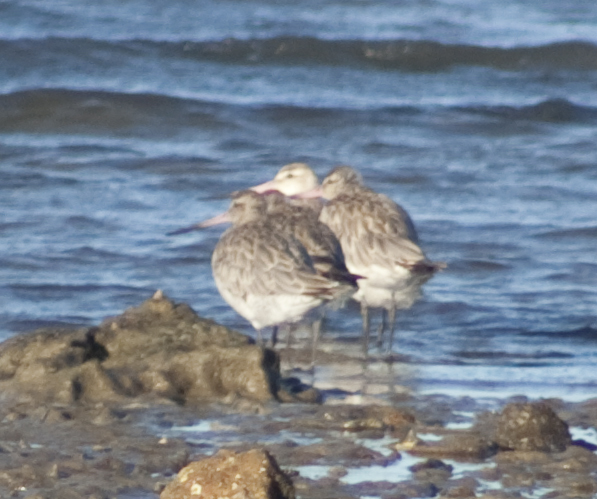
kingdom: Animalia
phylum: Chordata
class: Aves
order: Charadriiformes
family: Scolopacidae
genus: Limosa
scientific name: Limosa lapponica
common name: Bar-tailed godwit
